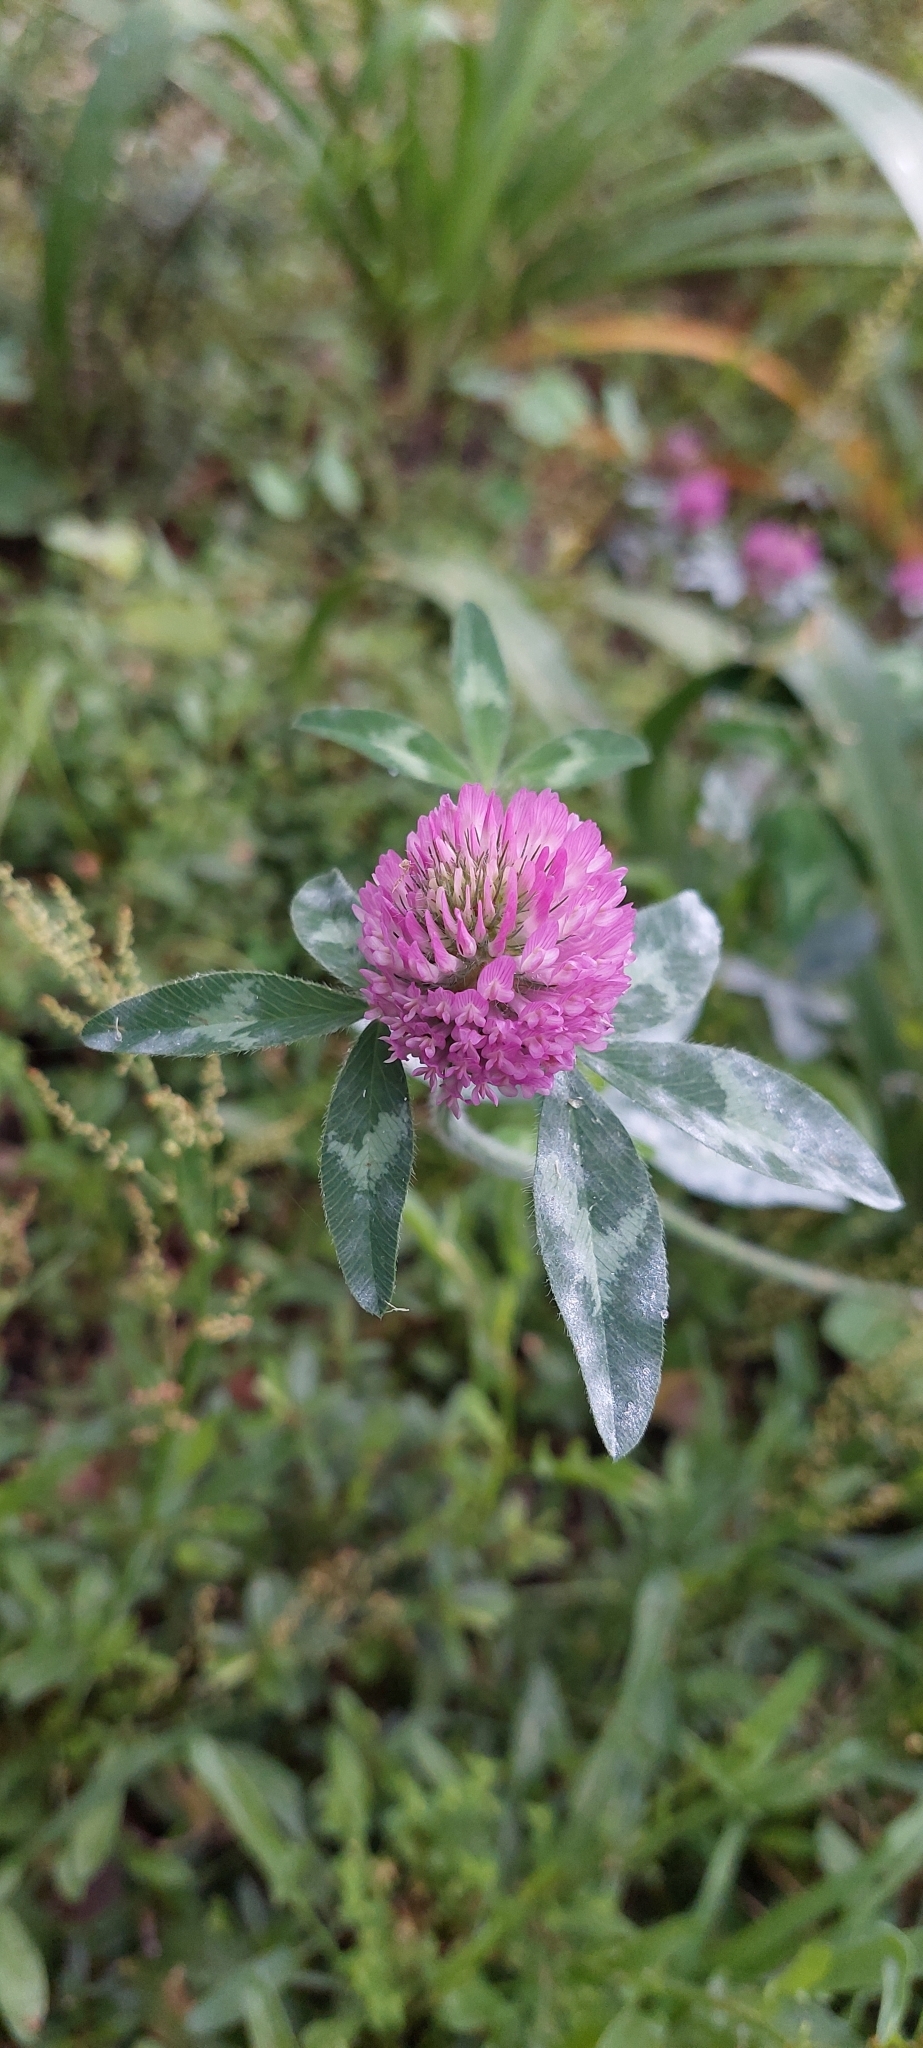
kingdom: Plantae
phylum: Tracheophyta
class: Magnoliopsida
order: Fabales
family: Fabaceae
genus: Trifolium
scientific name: Trifolium pratense
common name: Red clover
